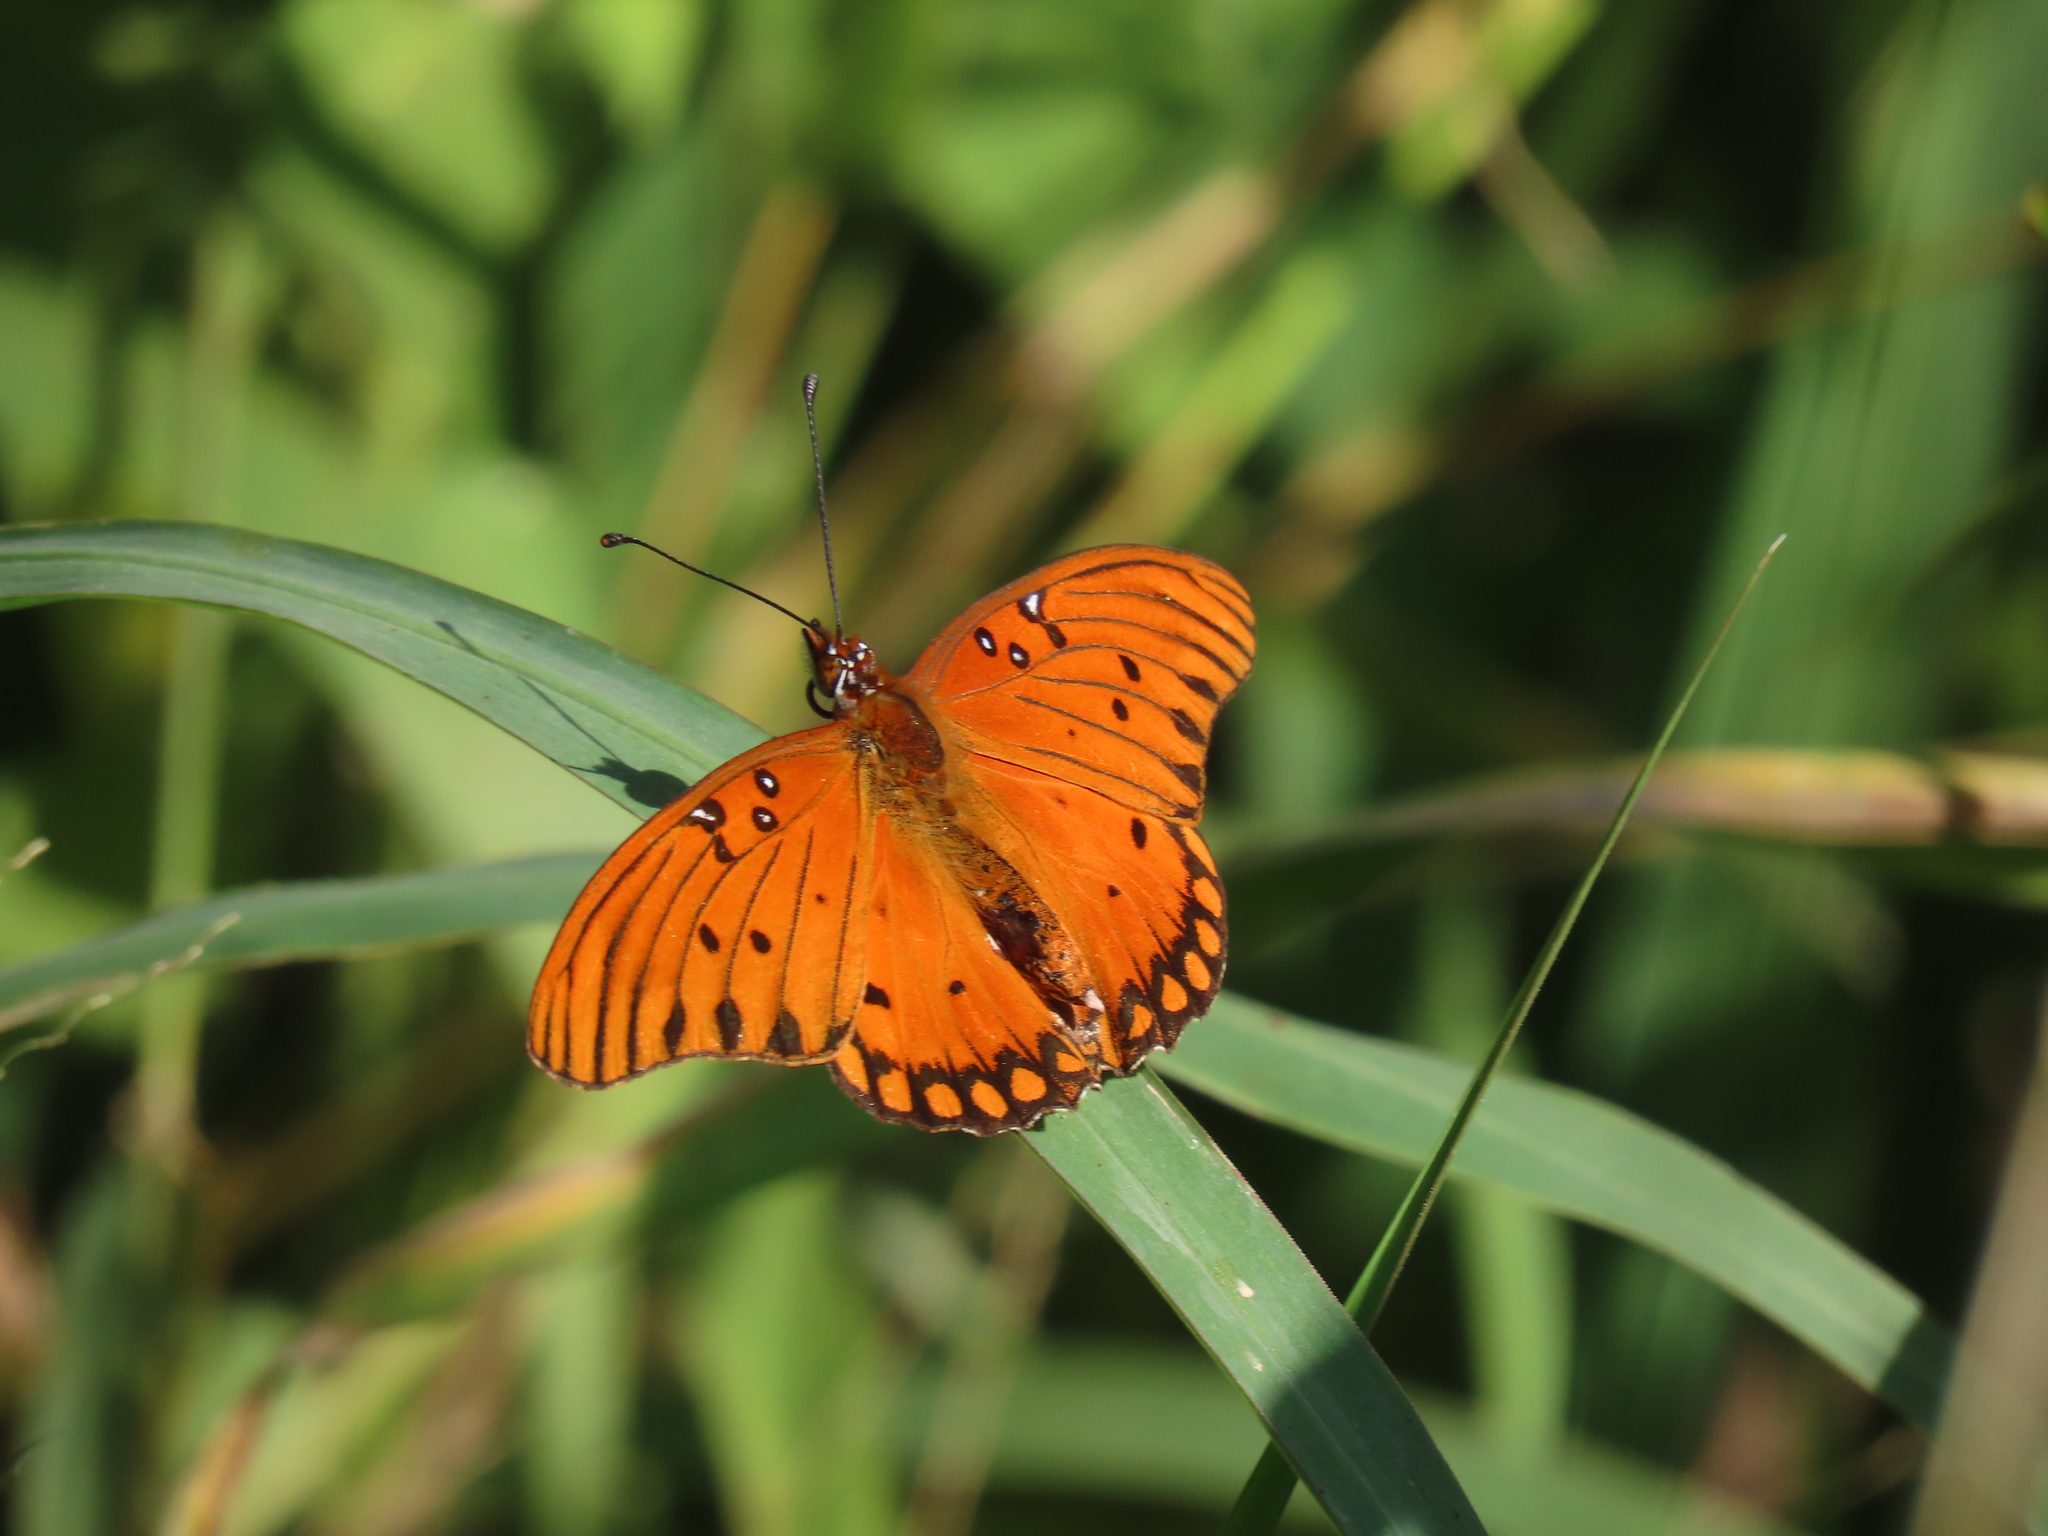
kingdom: Animalia
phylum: Arthropoda
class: Insecta
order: Lepidoptera
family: Nymphalidae
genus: Dione
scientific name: Dione vanillae
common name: Gulf fritillary
